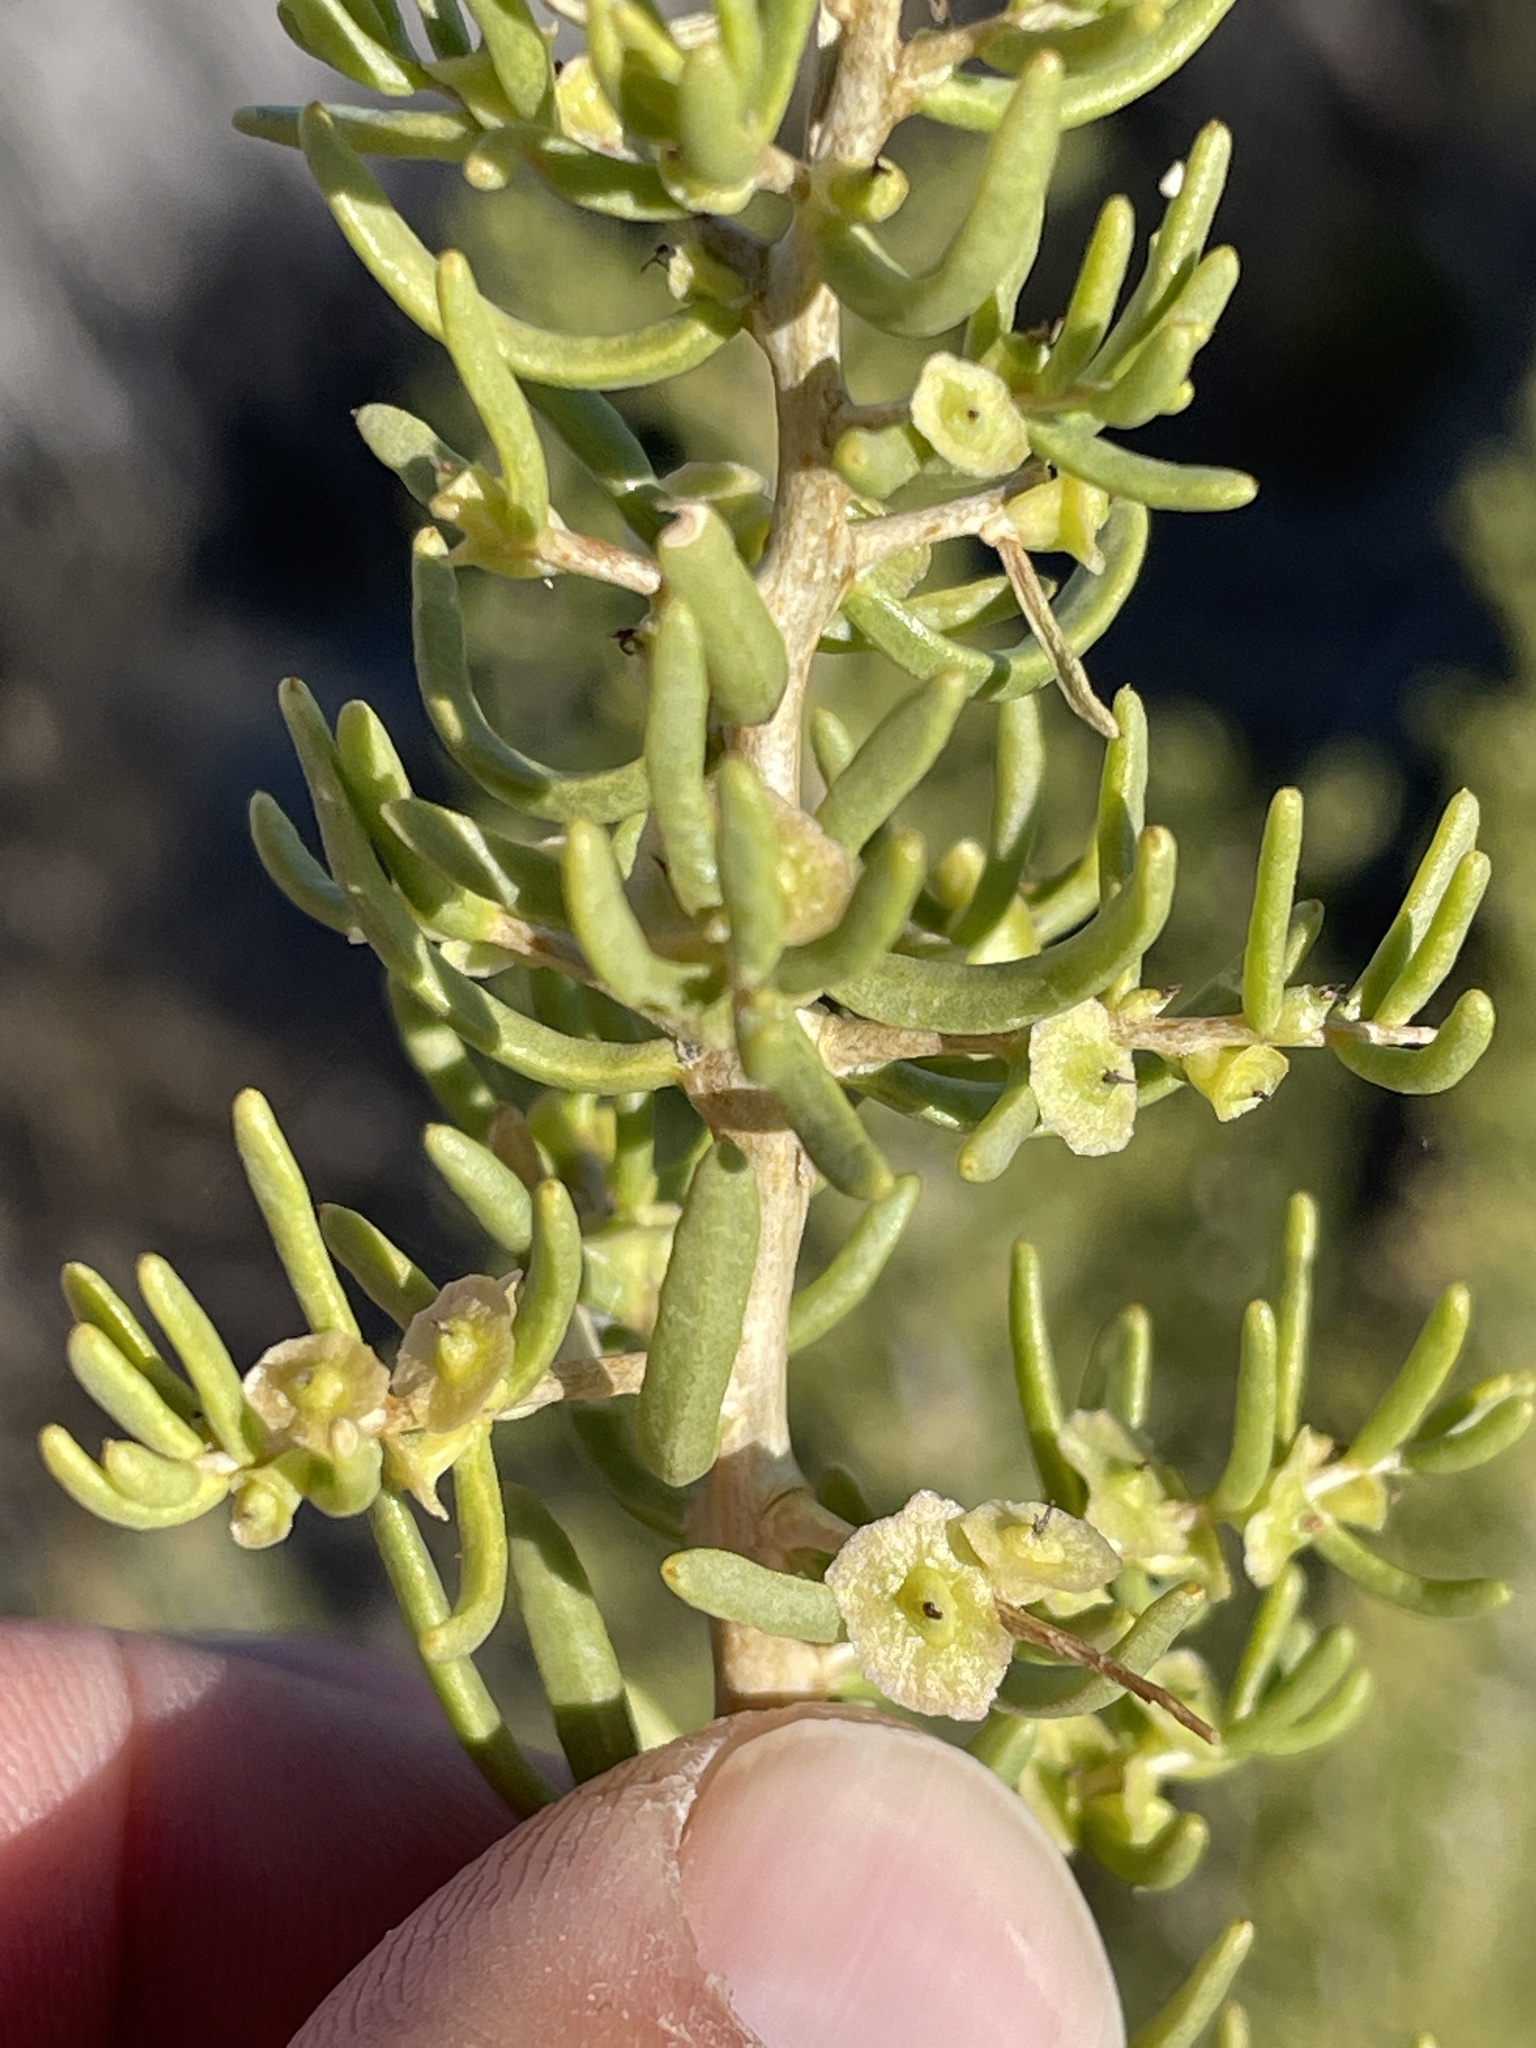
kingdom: Plantae
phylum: Tracheophyta
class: Magnoliopsida
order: Caryophyllales
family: Sarcobataceae
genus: Sarcobatus
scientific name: Sarcobatus vermiculatus
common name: Greasewood
